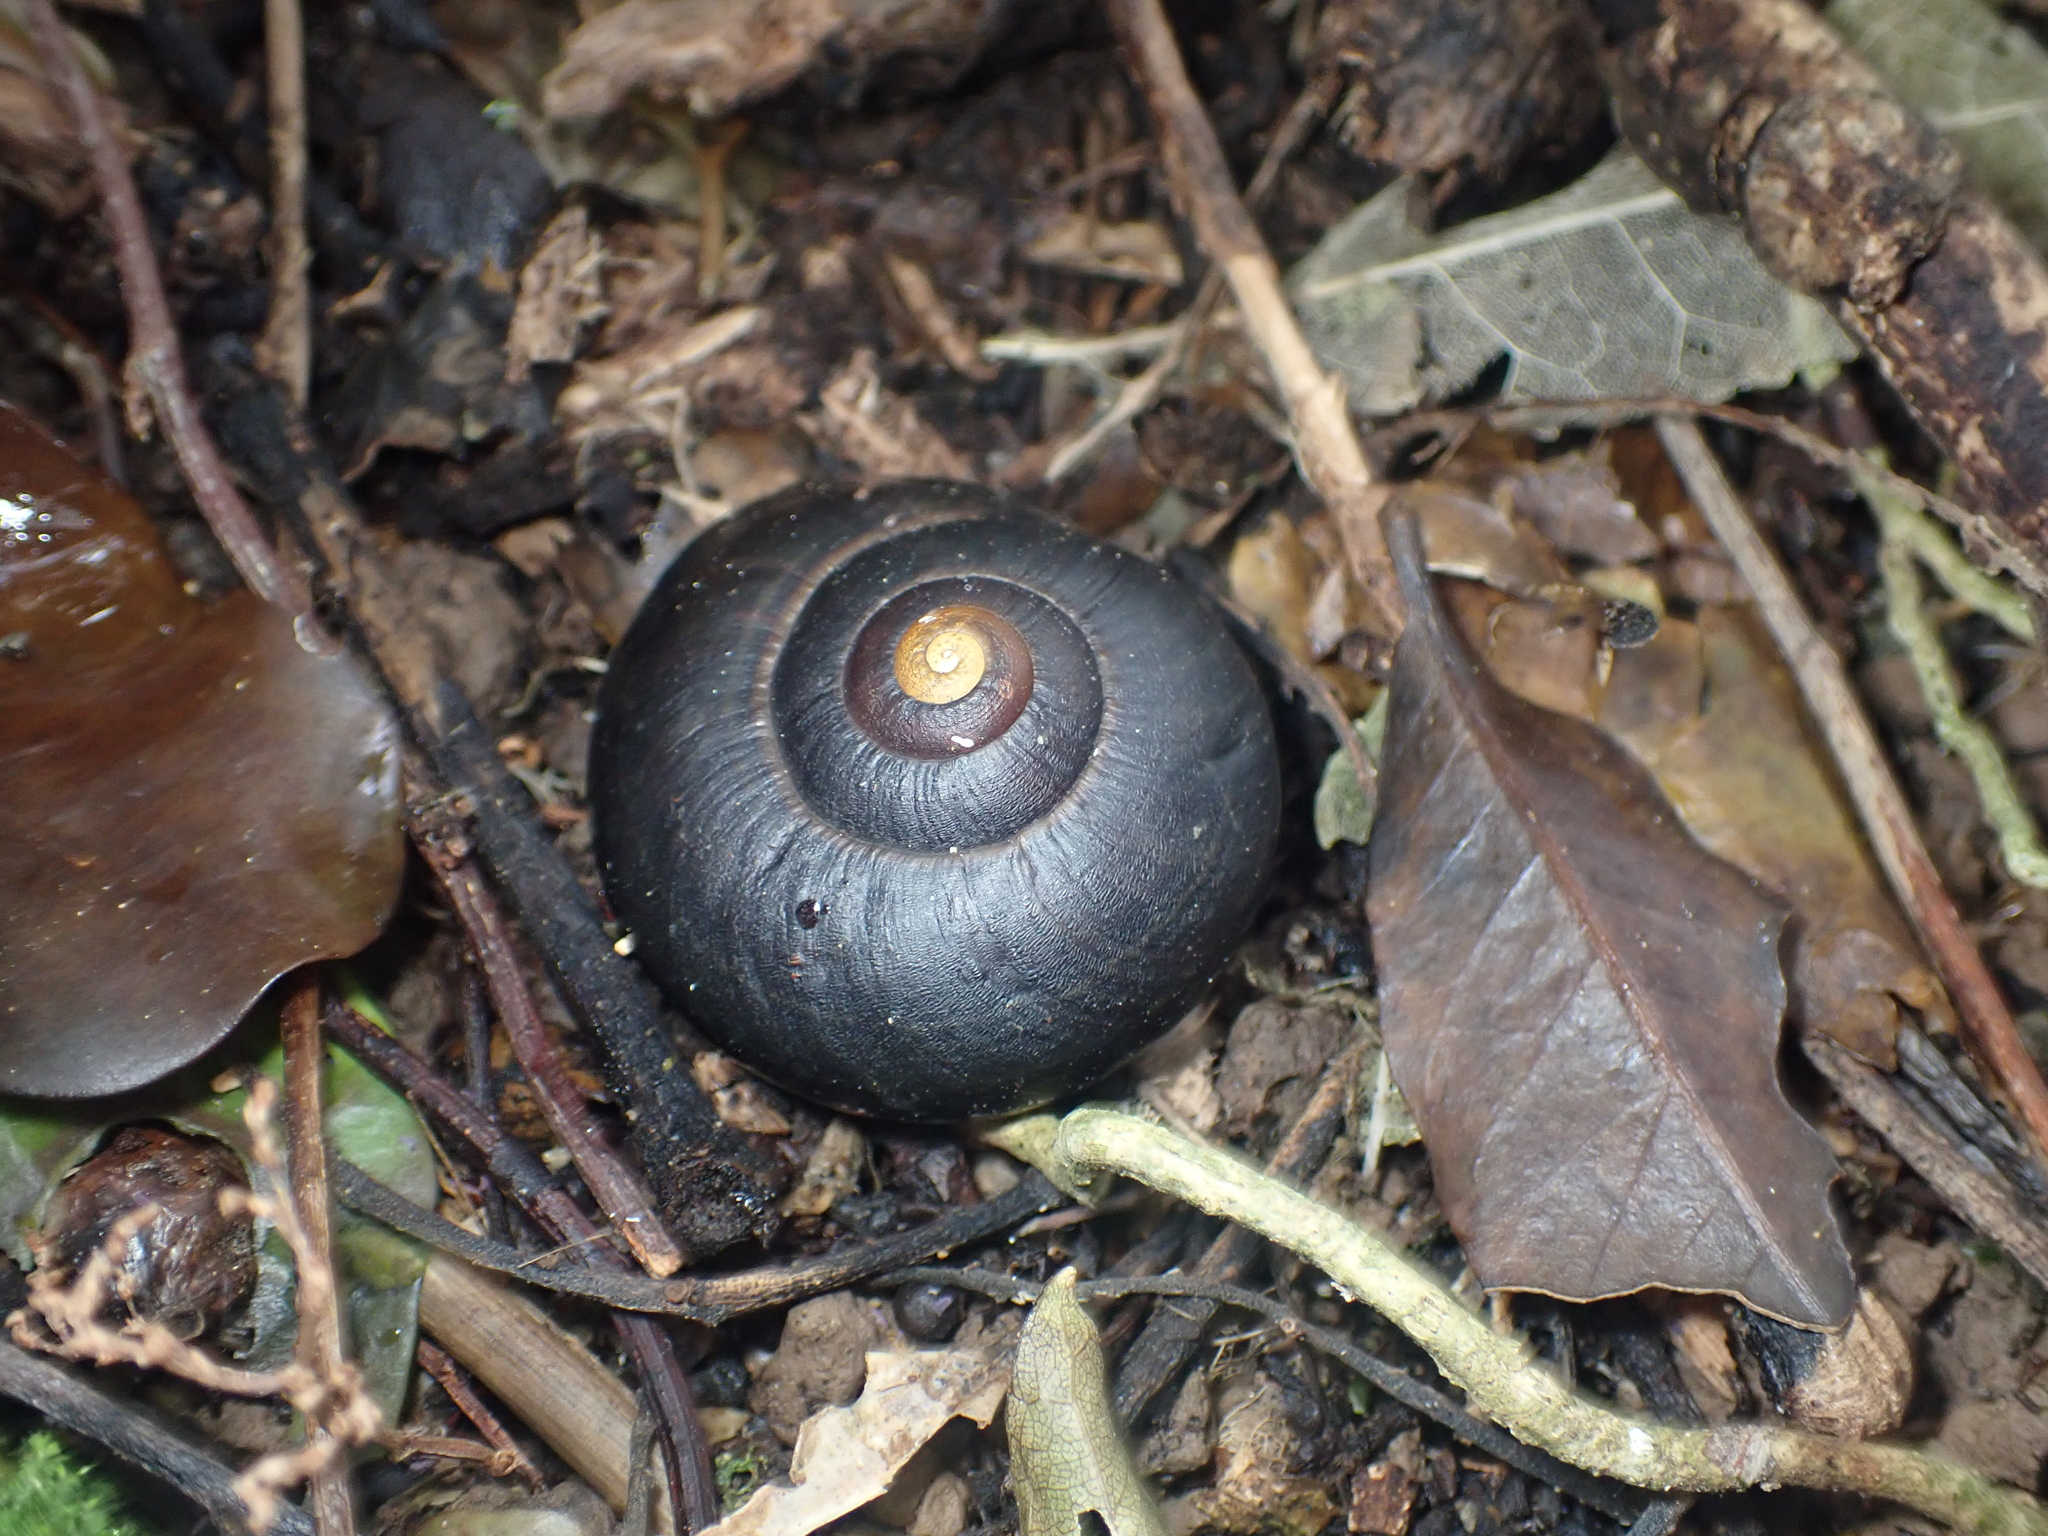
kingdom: Animalia
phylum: Mollusca
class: Gastropoda
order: Stylommatophora
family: Rhytididae
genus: Powelliphanta
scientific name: Powelliphanta traversi
